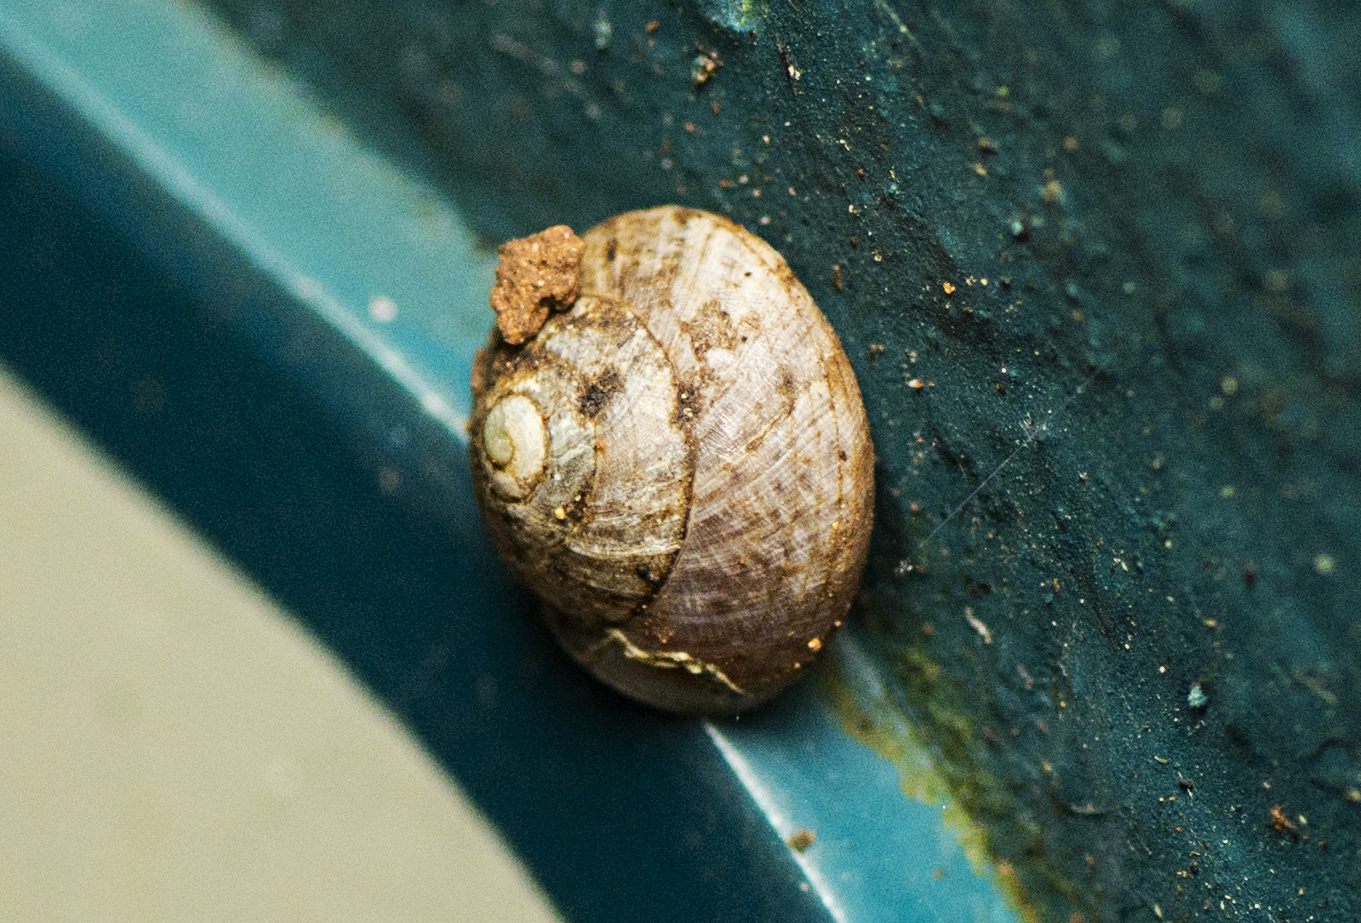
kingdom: Animalia
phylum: Mollusca
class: Gastropoda
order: Cycloneritida
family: Helicinidae
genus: Pleuropoma
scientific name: Pleuropoma draytonensis
